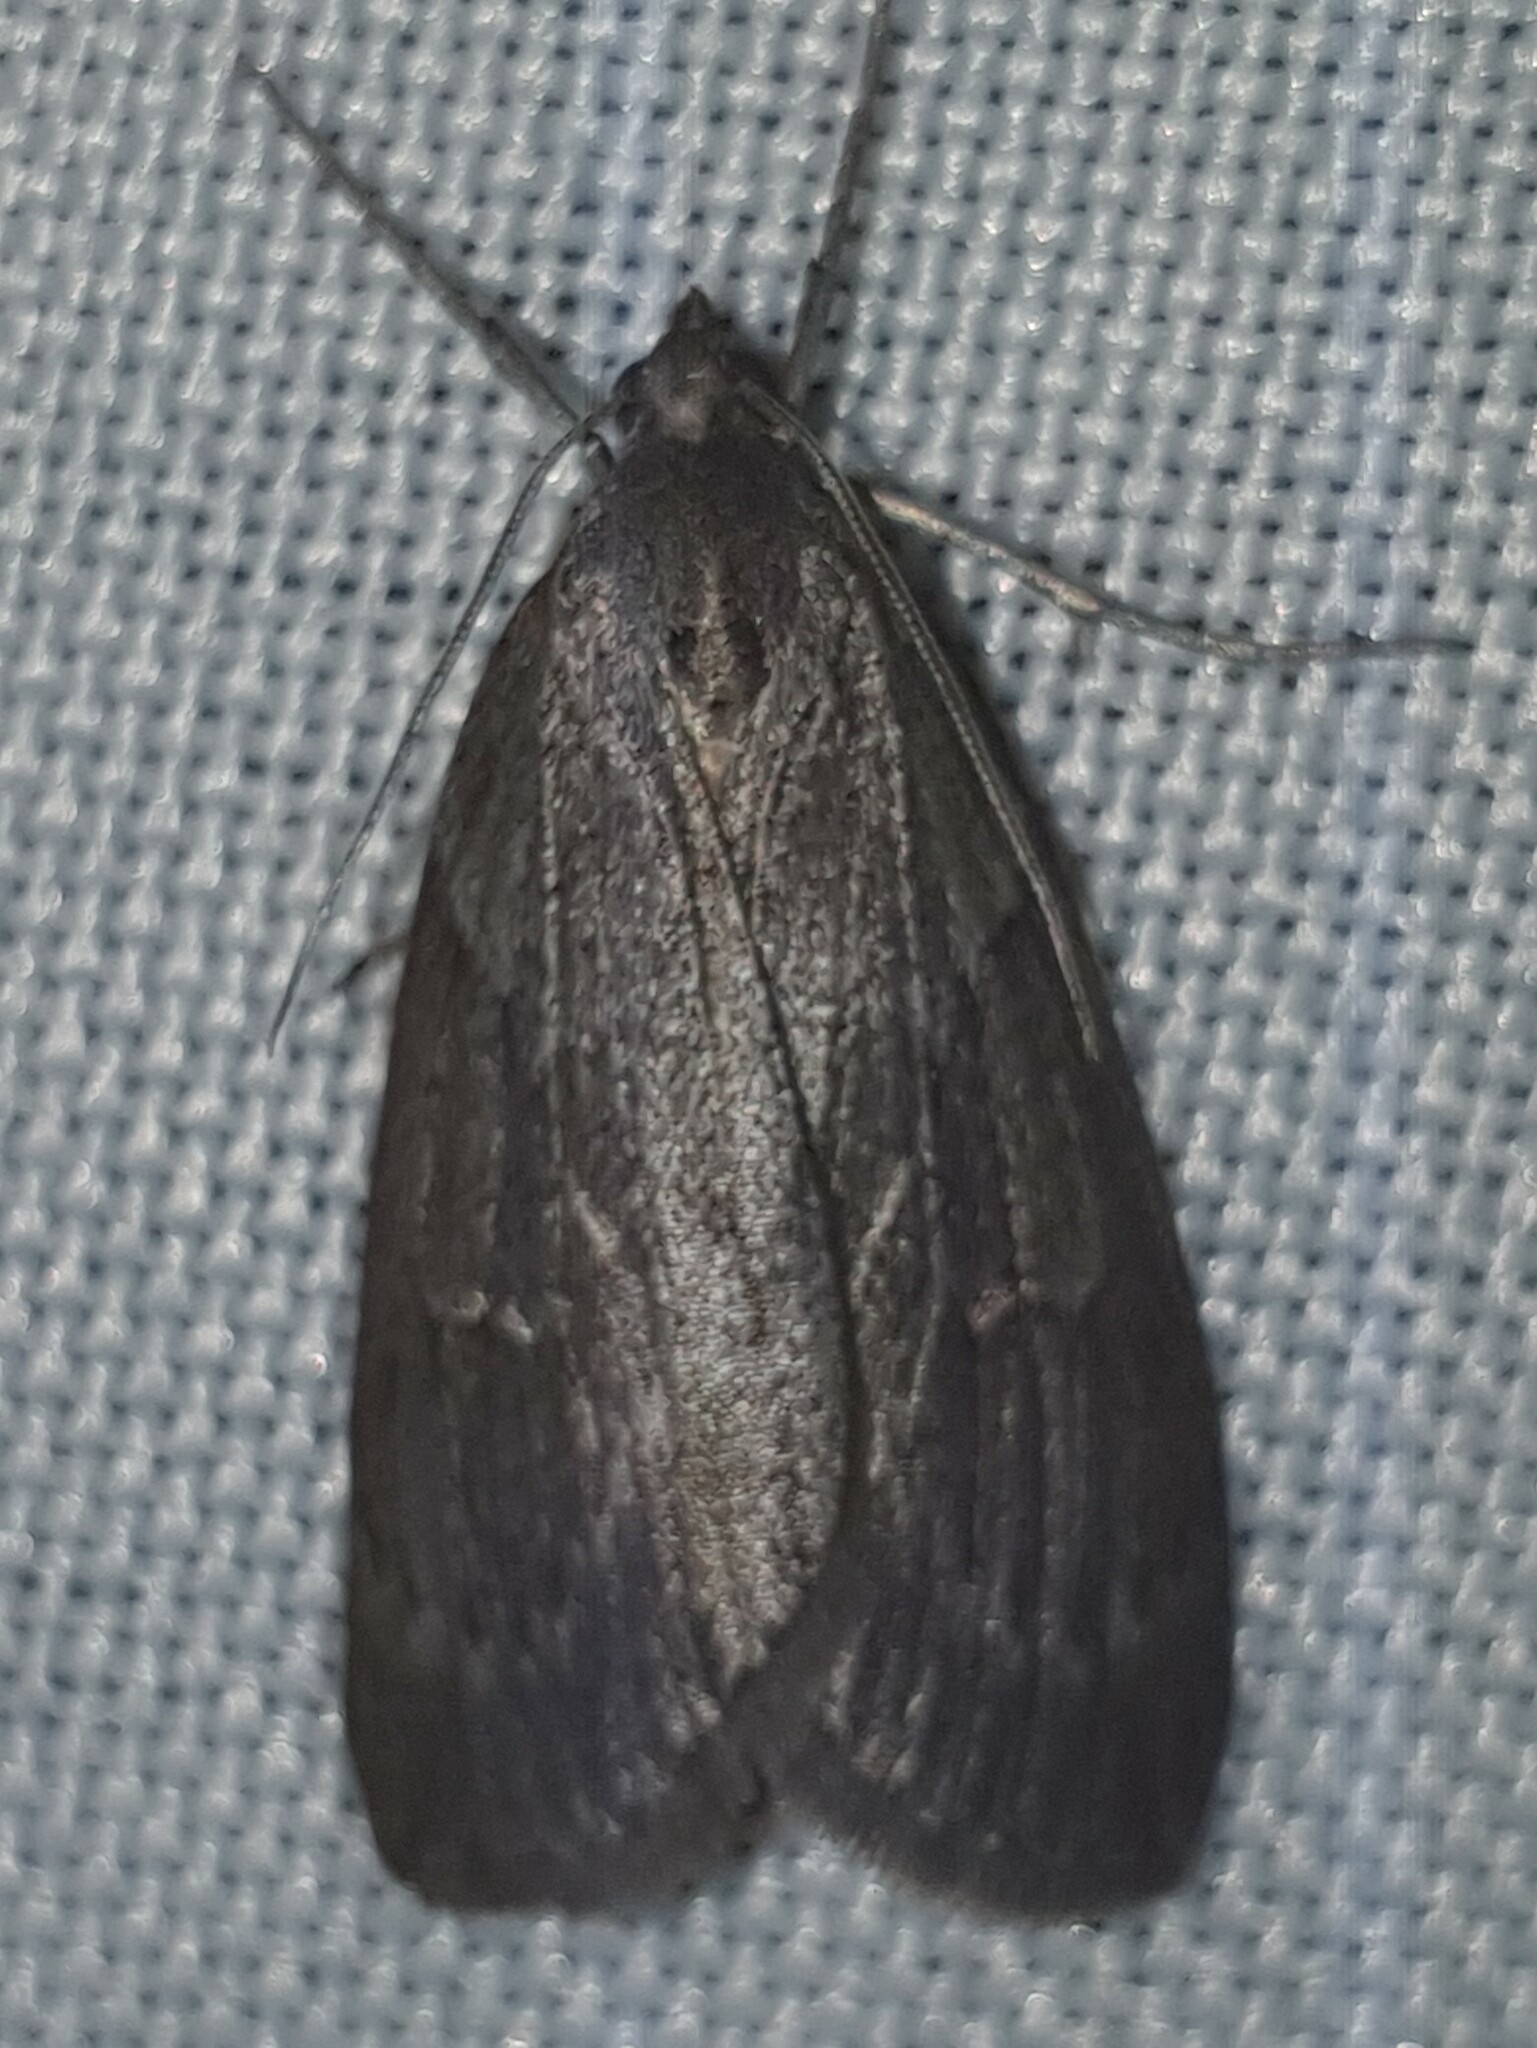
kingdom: Animalia
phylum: Arthropoda
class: Insecta
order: Lepidoptera
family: Geometridae
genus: Pachycnemia
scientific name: Pachycnemia hippocastanaria
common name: Horse chestnut
